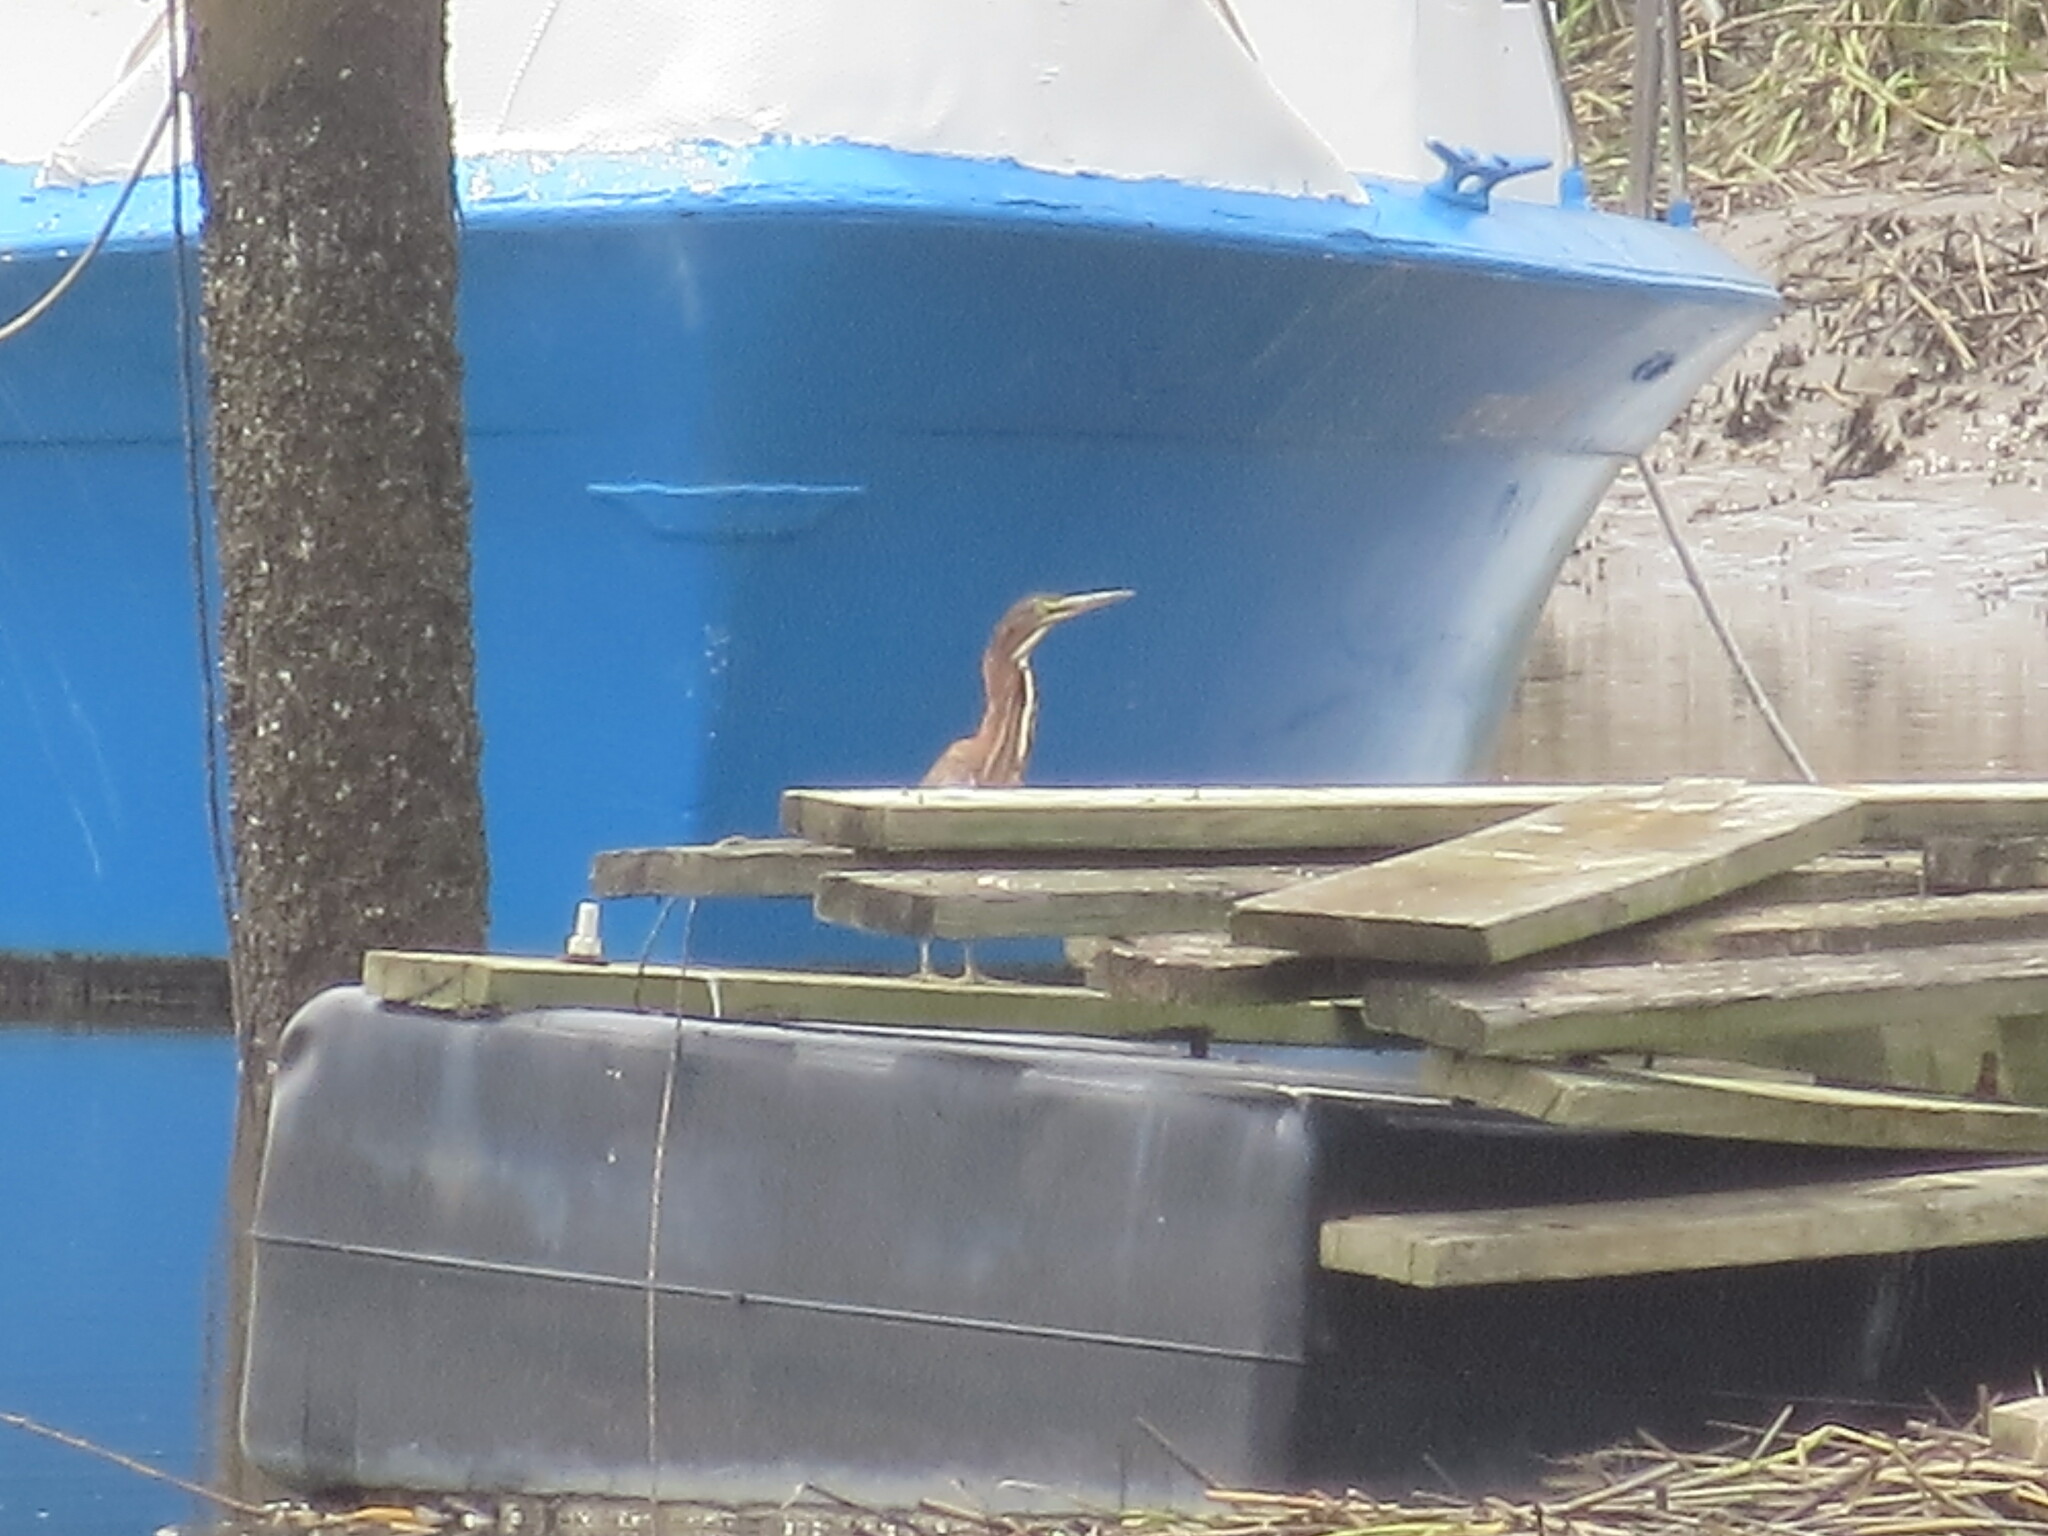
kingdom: Animalia
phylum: Chordata
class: Aves
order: Pelecaniformes
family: Ardeidae
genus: Butorides
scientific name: Butorides virescens
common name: Green heron
